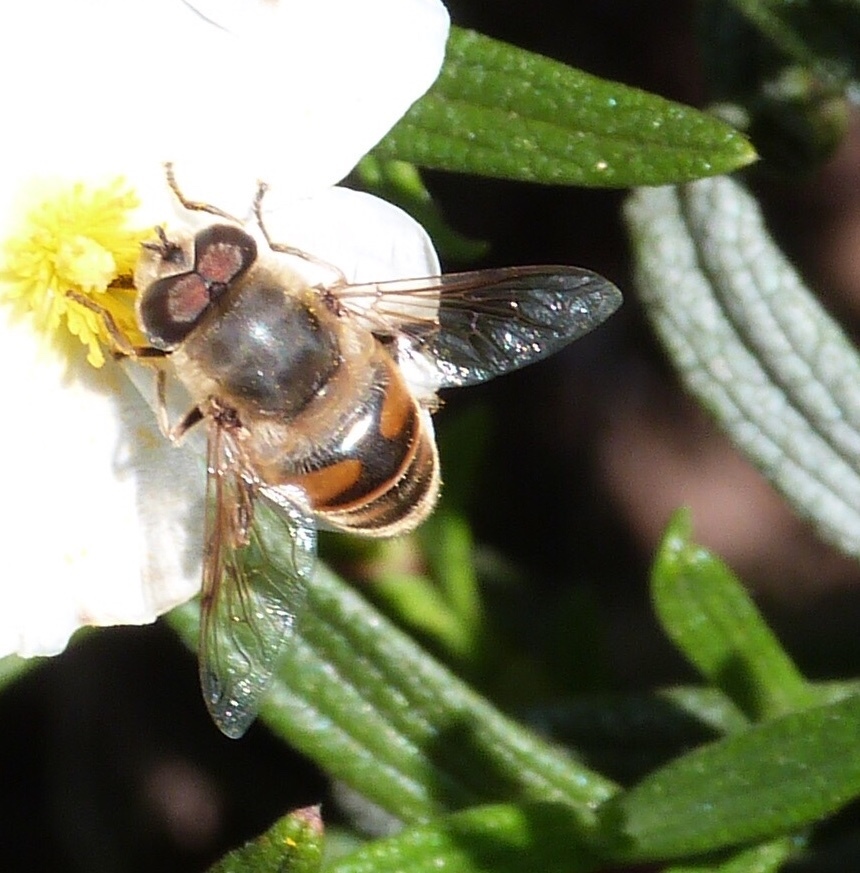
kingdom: Animalia
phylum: Arthropoda
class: Insecta
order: Diptera
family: Syrphidae
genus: Eristalis
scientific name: Eristalis tenax
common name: Drone fly
